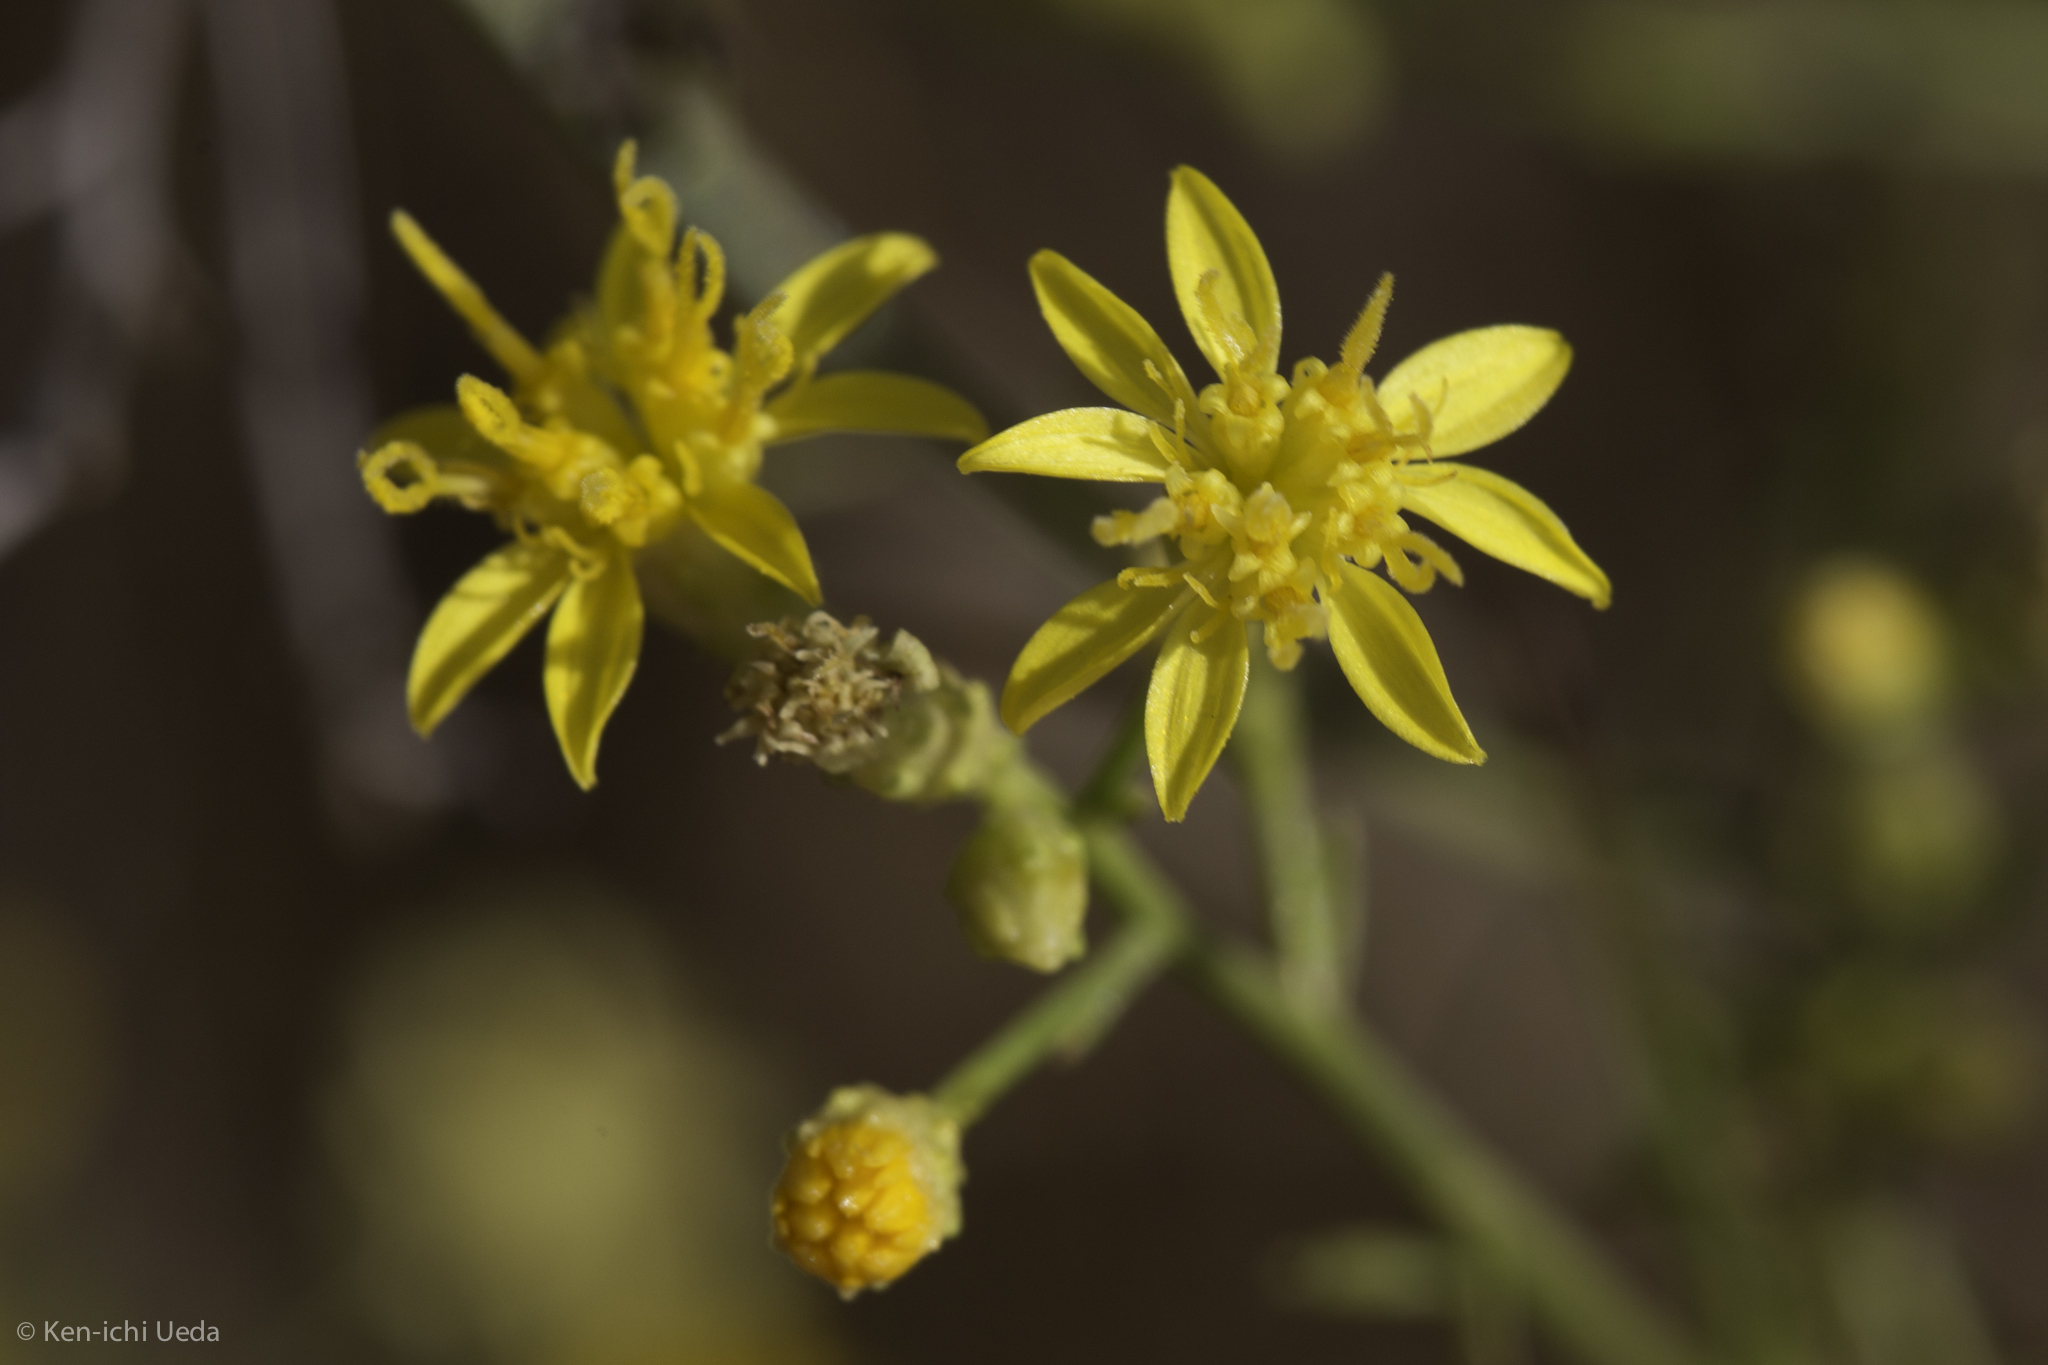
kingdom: Plantae
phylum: Tracheophyta
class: Magnoliopsida
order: Asterales
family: Asteraceae
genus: Gutierrezia
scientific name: Gutierrezia californica
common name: California matchweed
